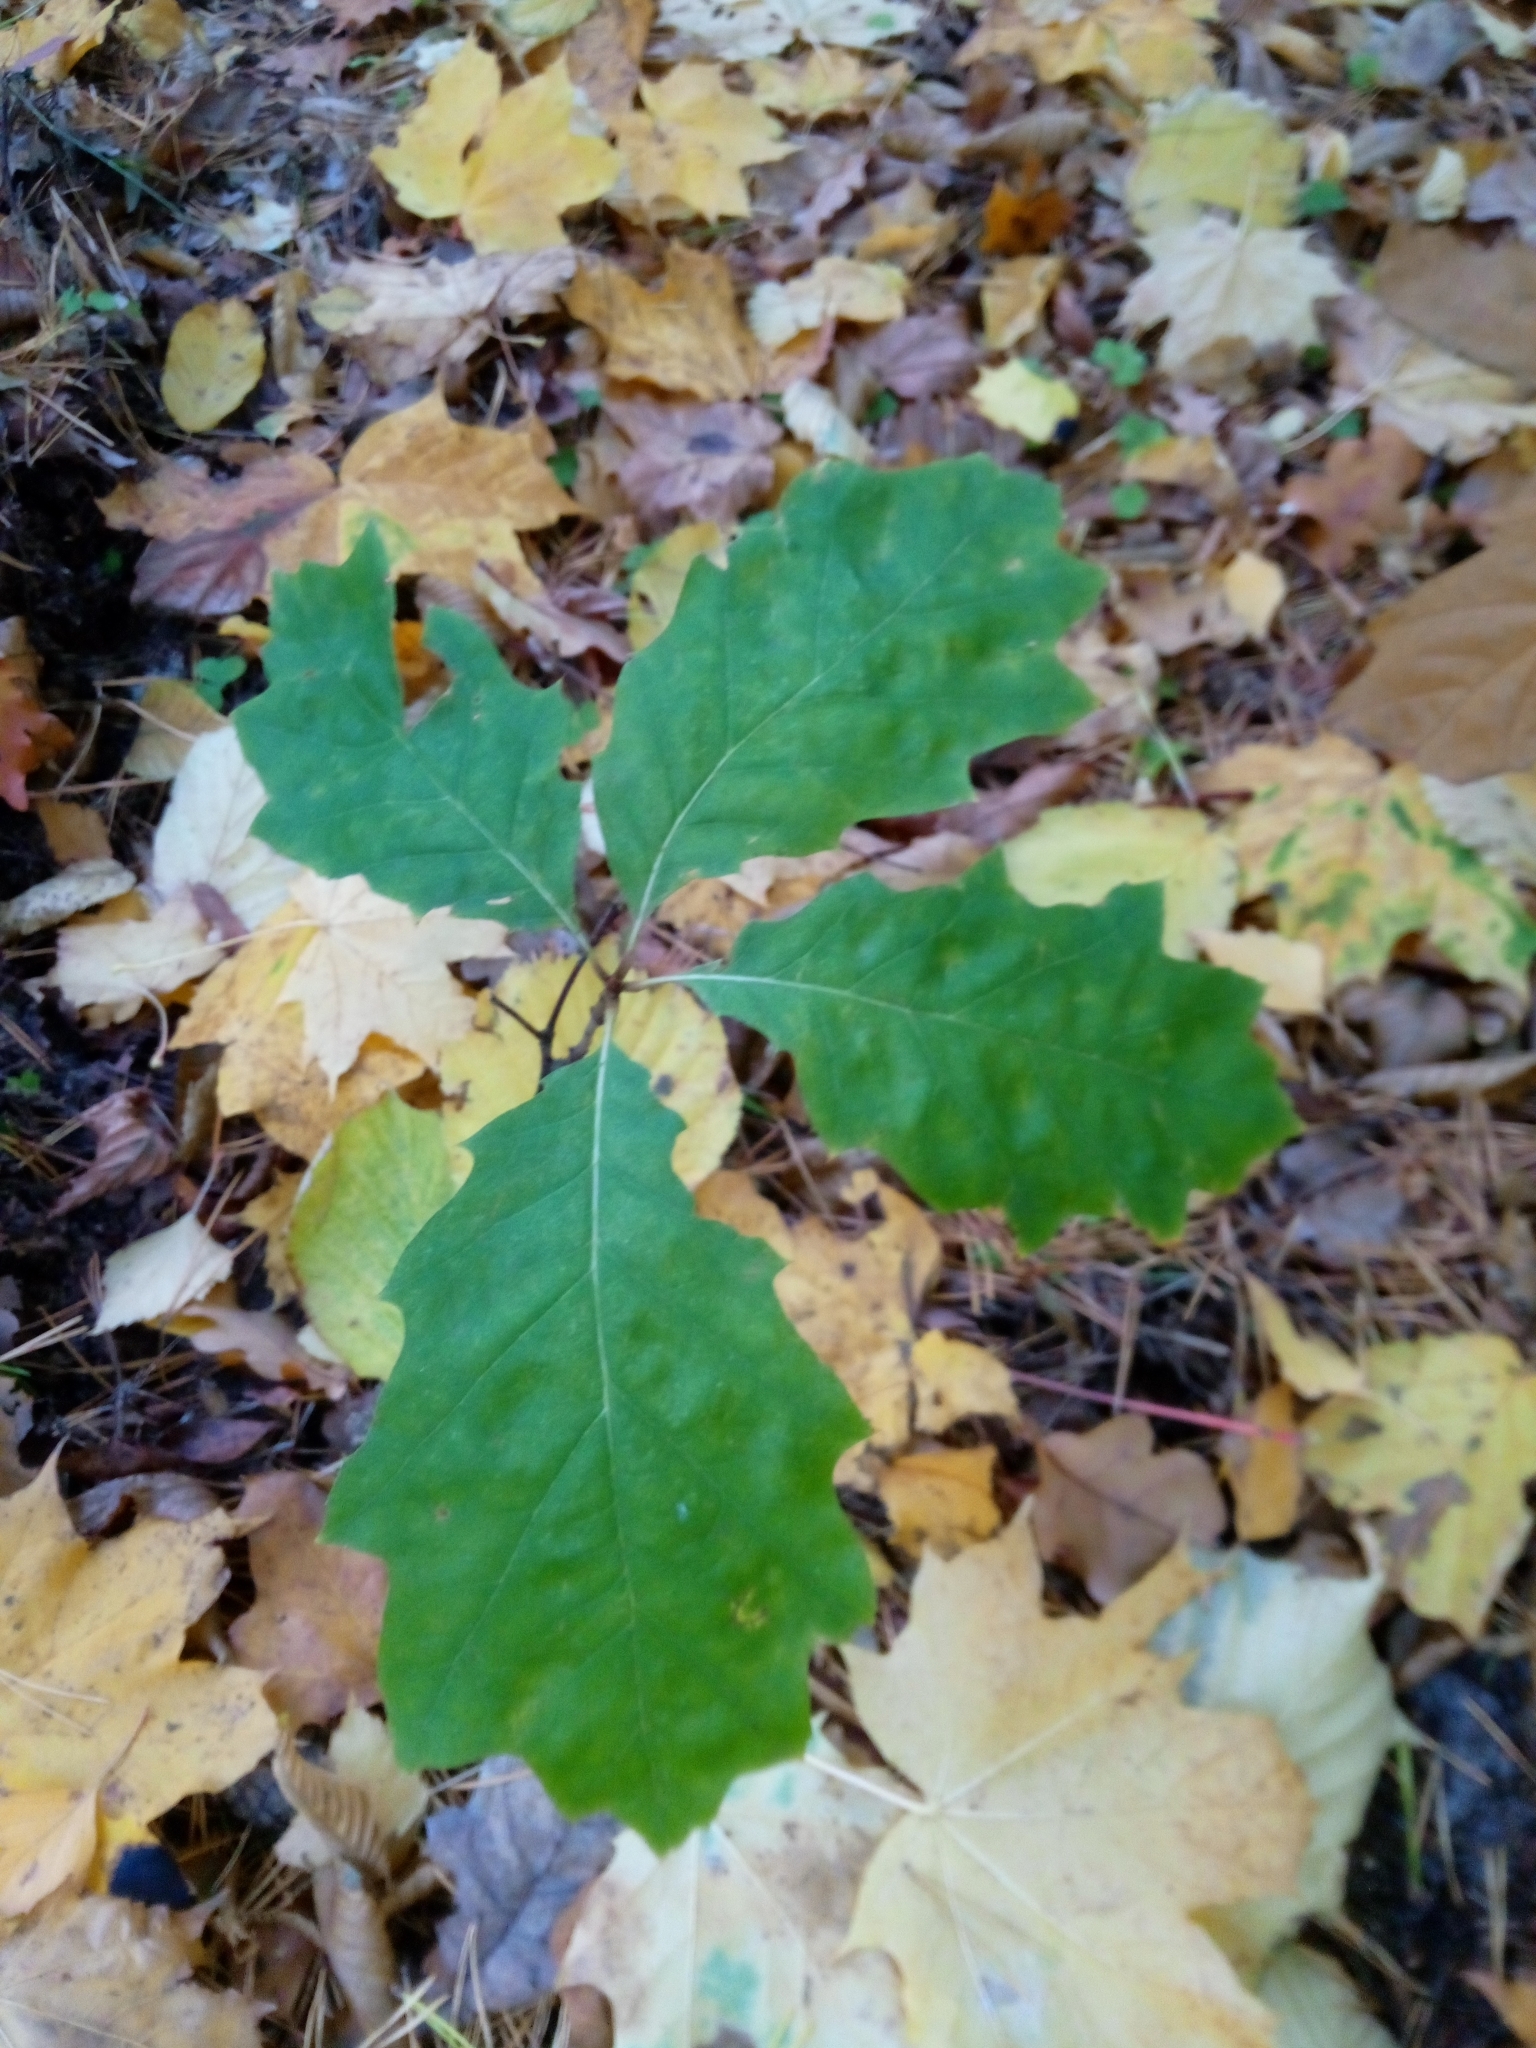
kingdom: Plantae
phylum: Tracheophyta
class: Magnoliopsida
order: Fagales
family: Fagaceae
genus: Quercus
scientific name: Quercus rubra
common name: Red oak
